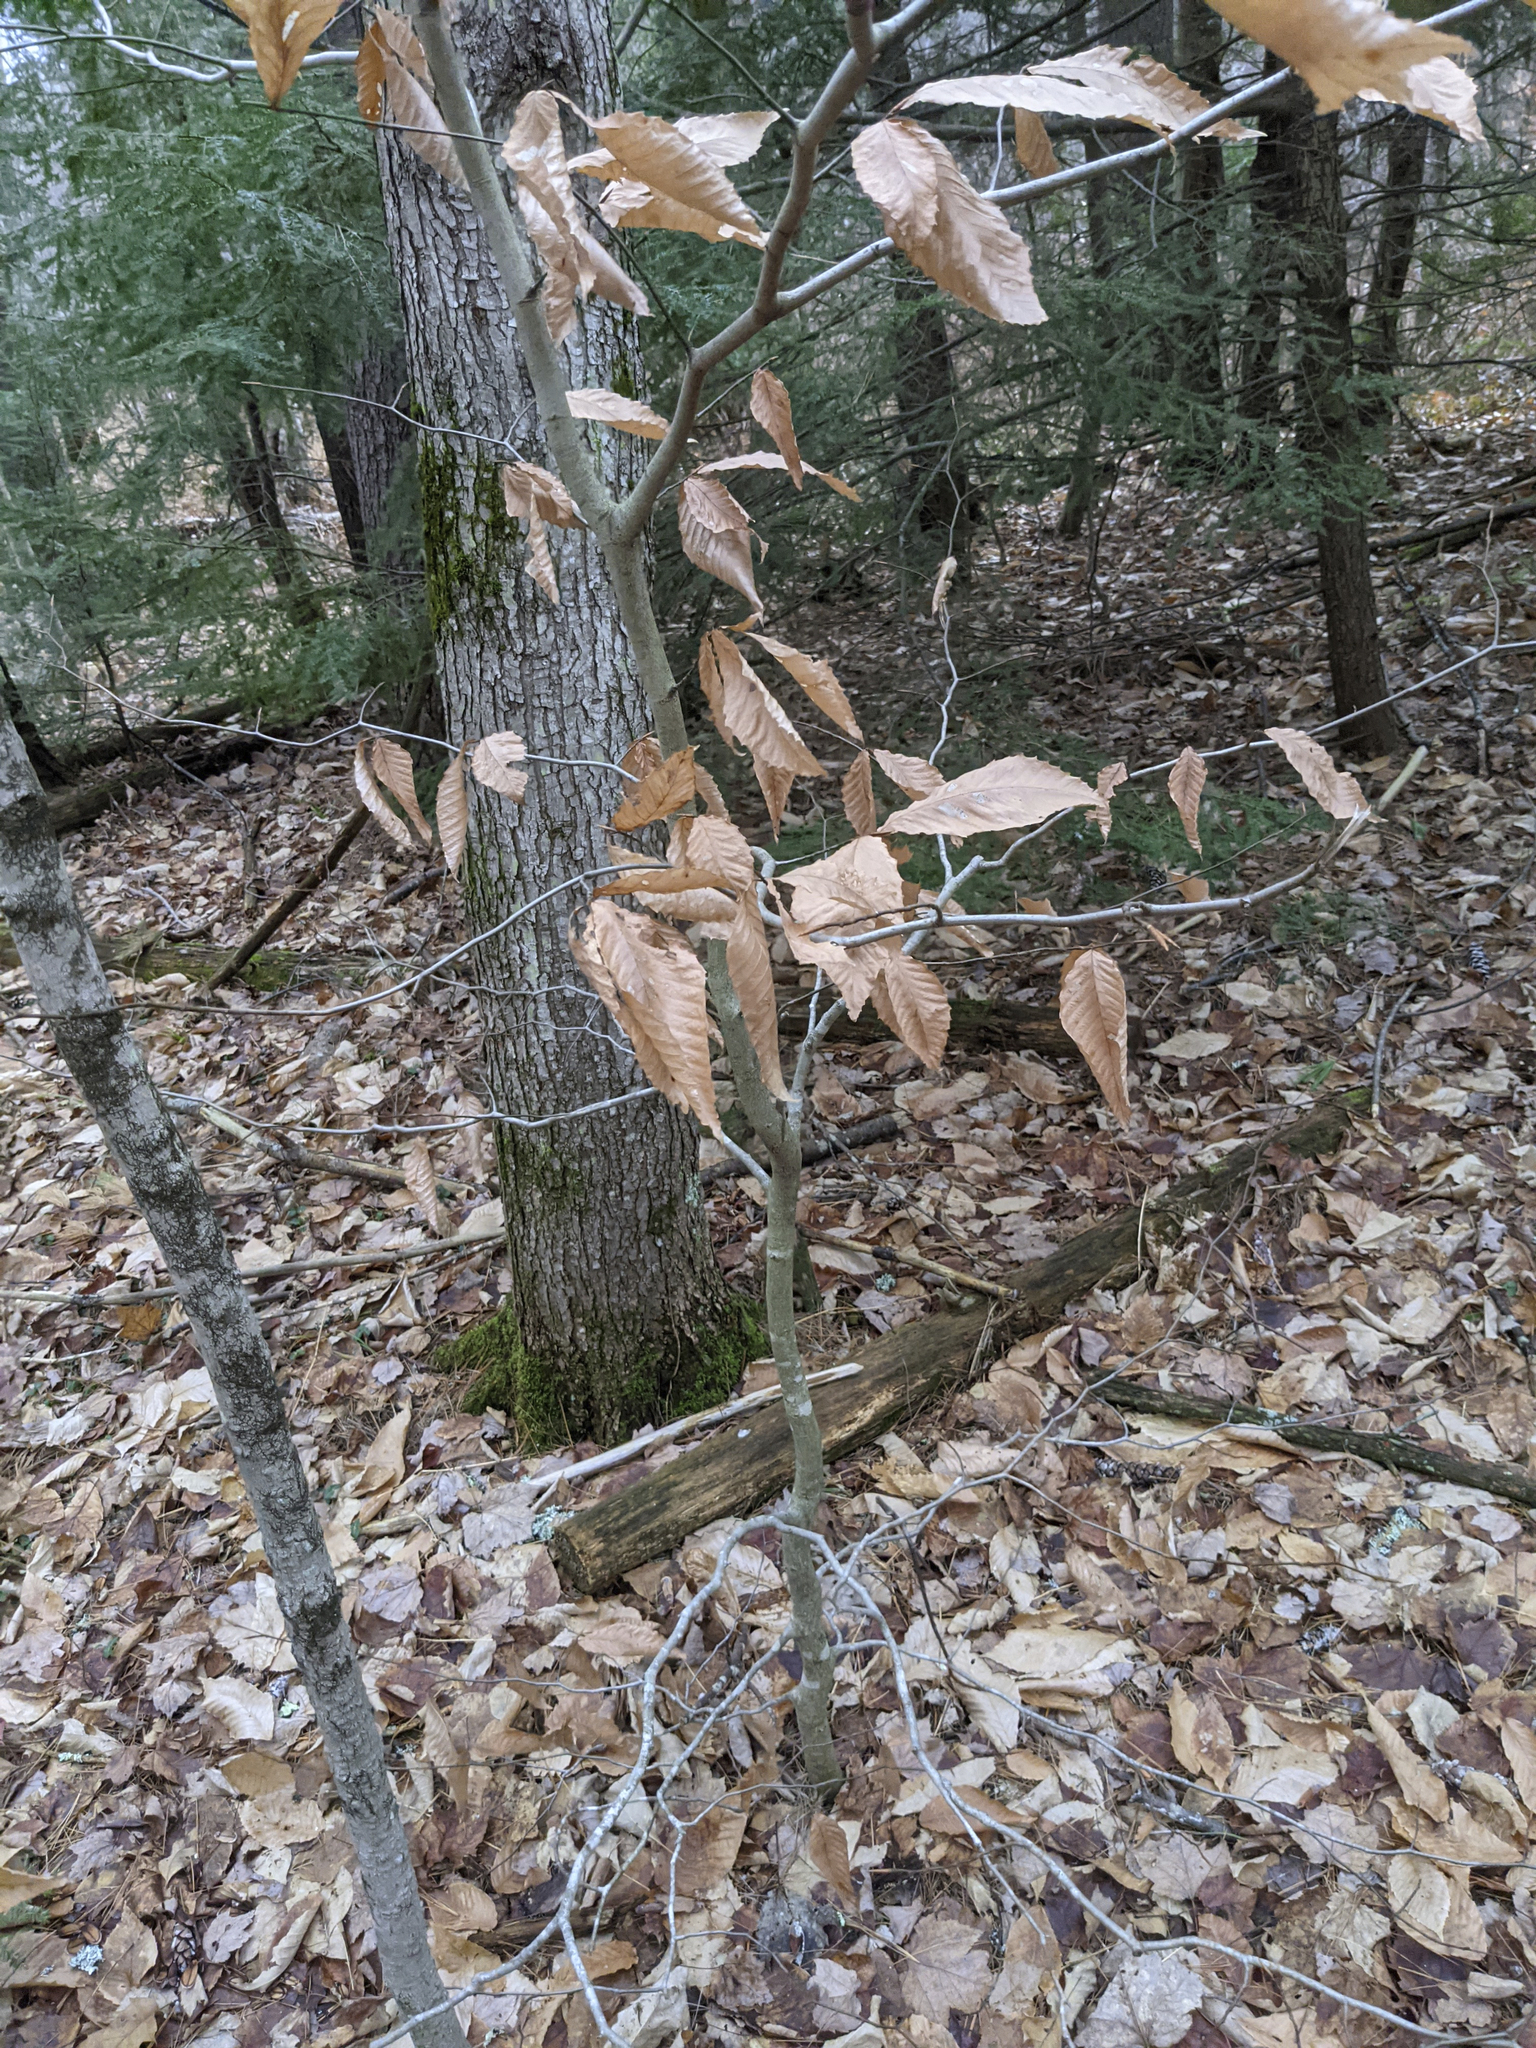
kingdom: Plantae
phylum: Tracheophyta
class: Magnoliopsida
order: Fagales
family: Fagaceae
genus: Fagus
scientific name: Fagus grandifolia
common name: American beech
